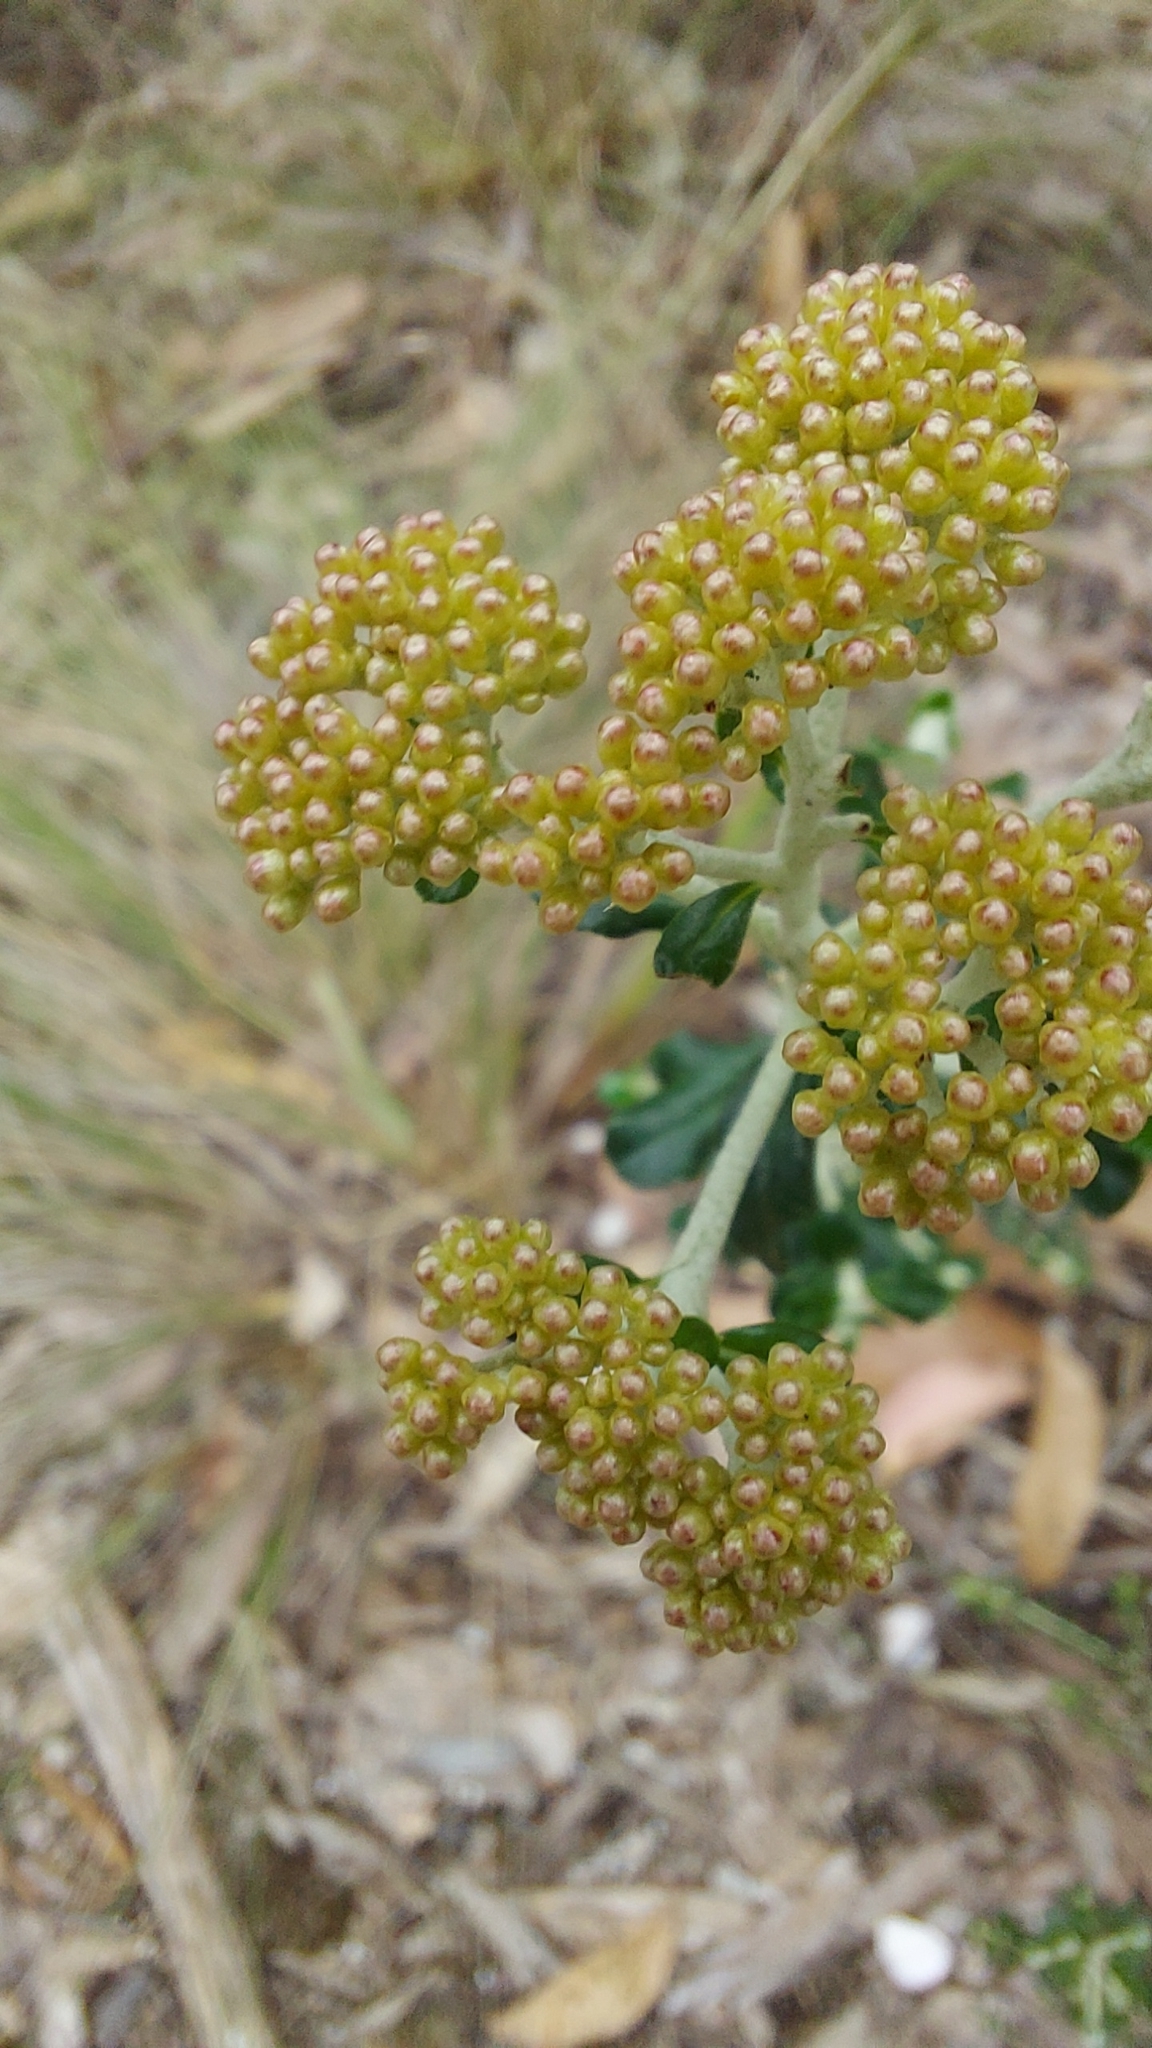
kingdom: Plantae
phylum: Tracheophyta
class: Magnoliopsida
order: Asterales
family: Asteraceae
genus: Ozothamnus
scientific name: Ozothamnus obcordatus
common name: Grey everlasting
